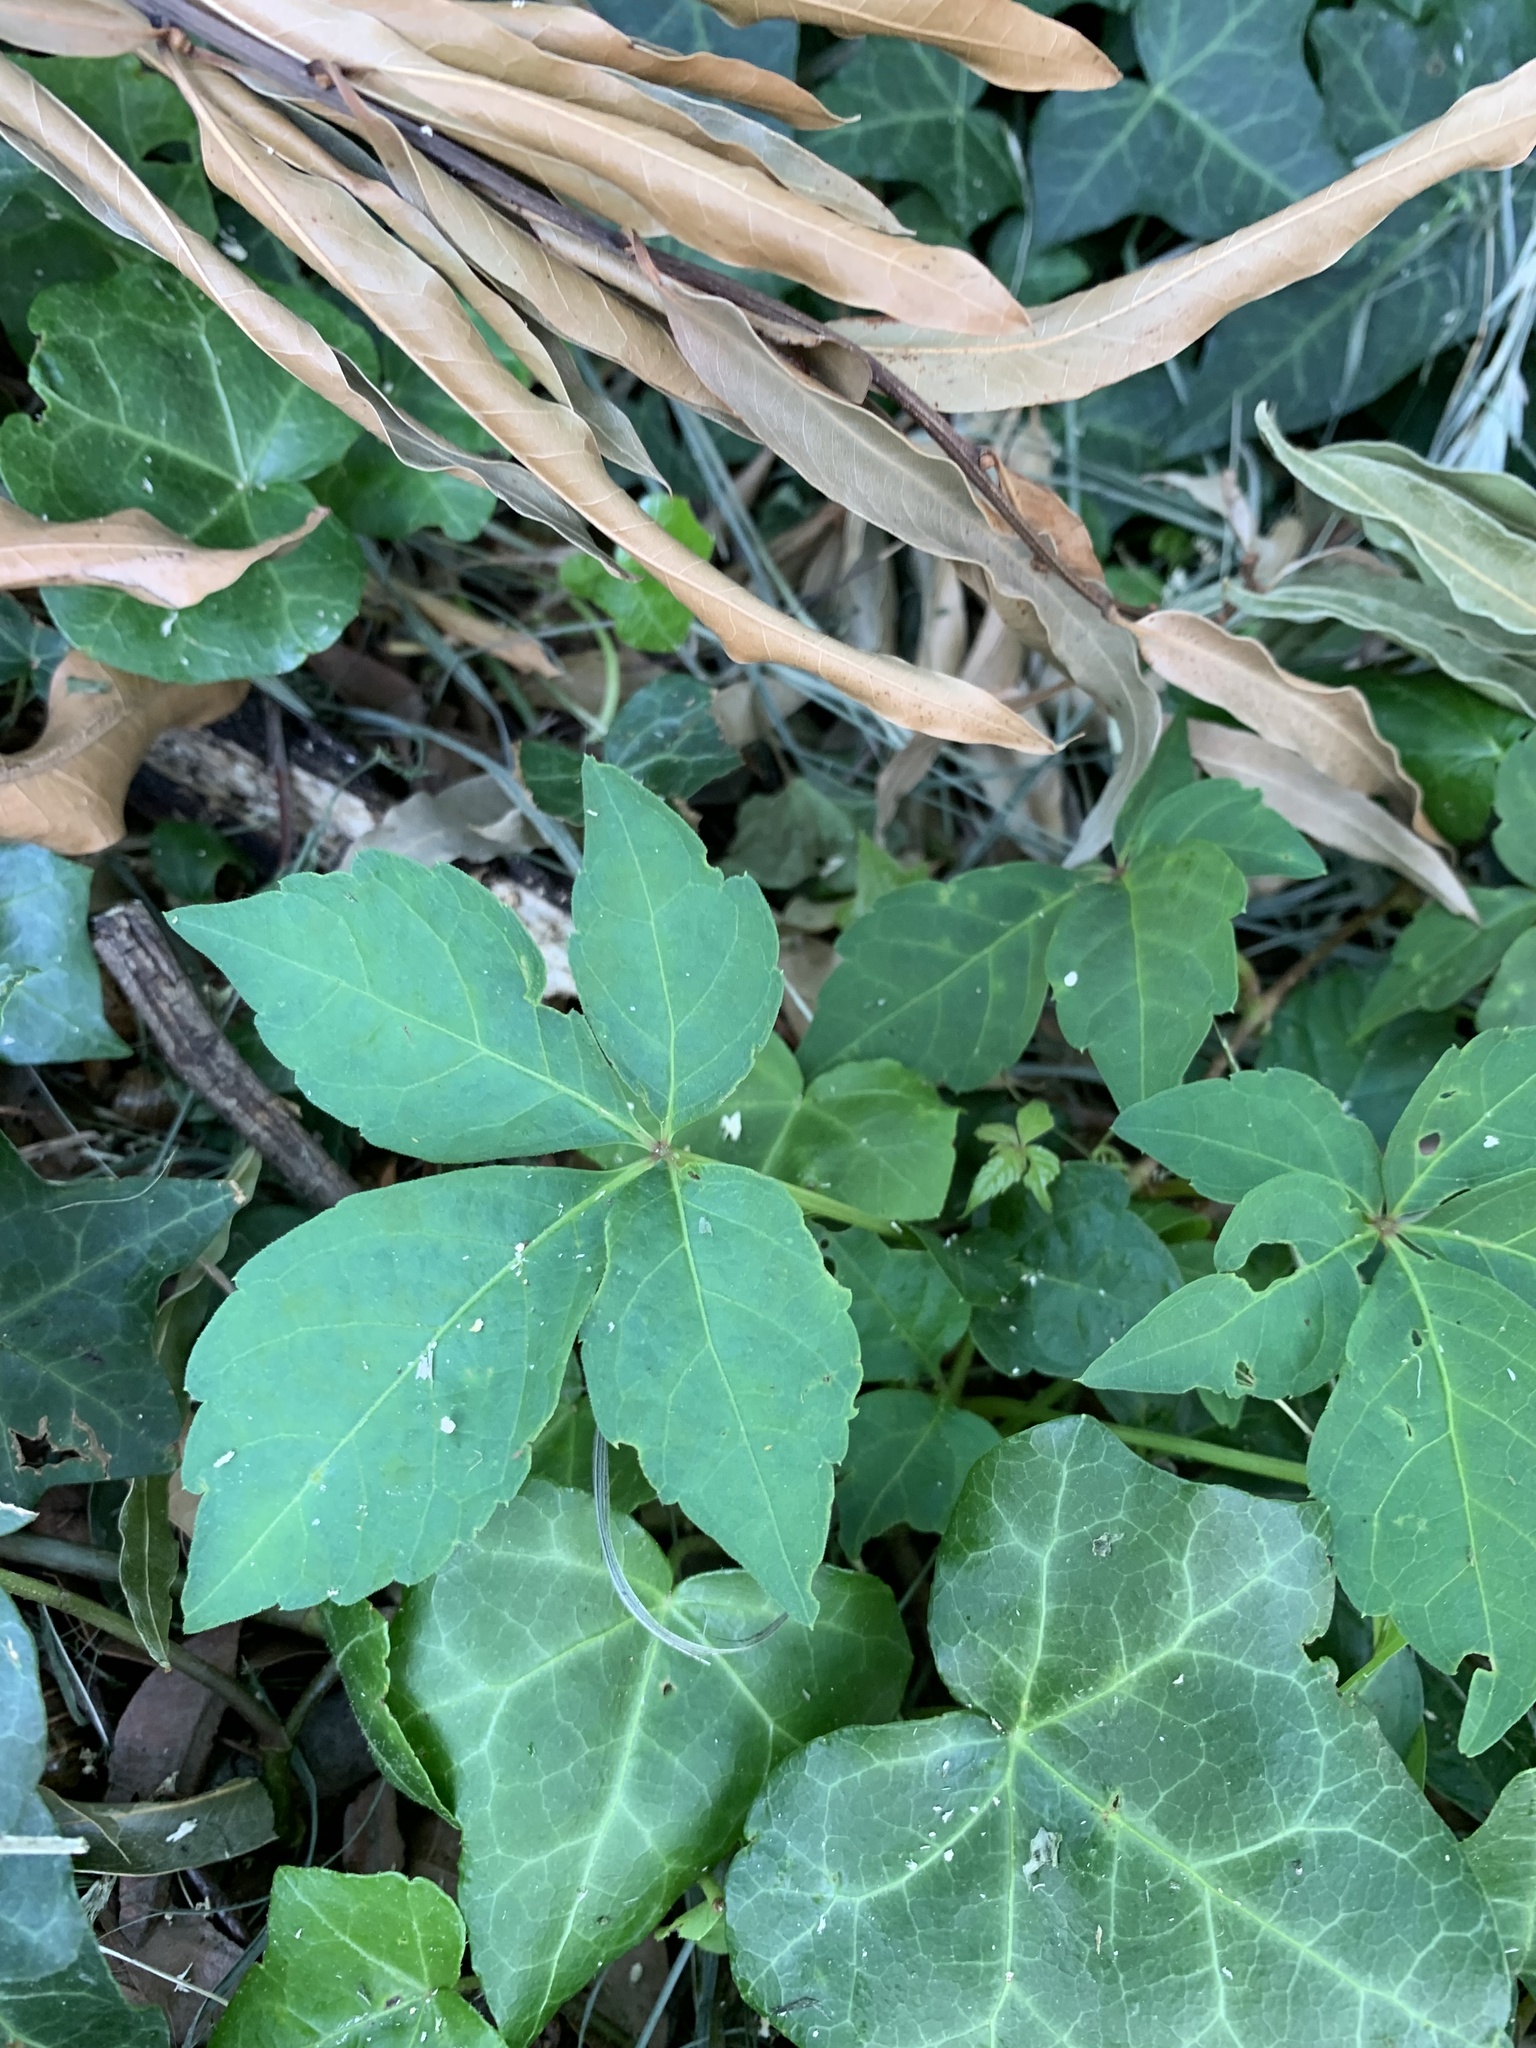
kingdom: Plantae
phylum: Tracheophyta
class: Magnoliopsida
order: Vitales
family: Vitaceae
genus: Parthenocissus
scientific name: Parthenocissus quinquefolia
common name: Virginia-creeper
